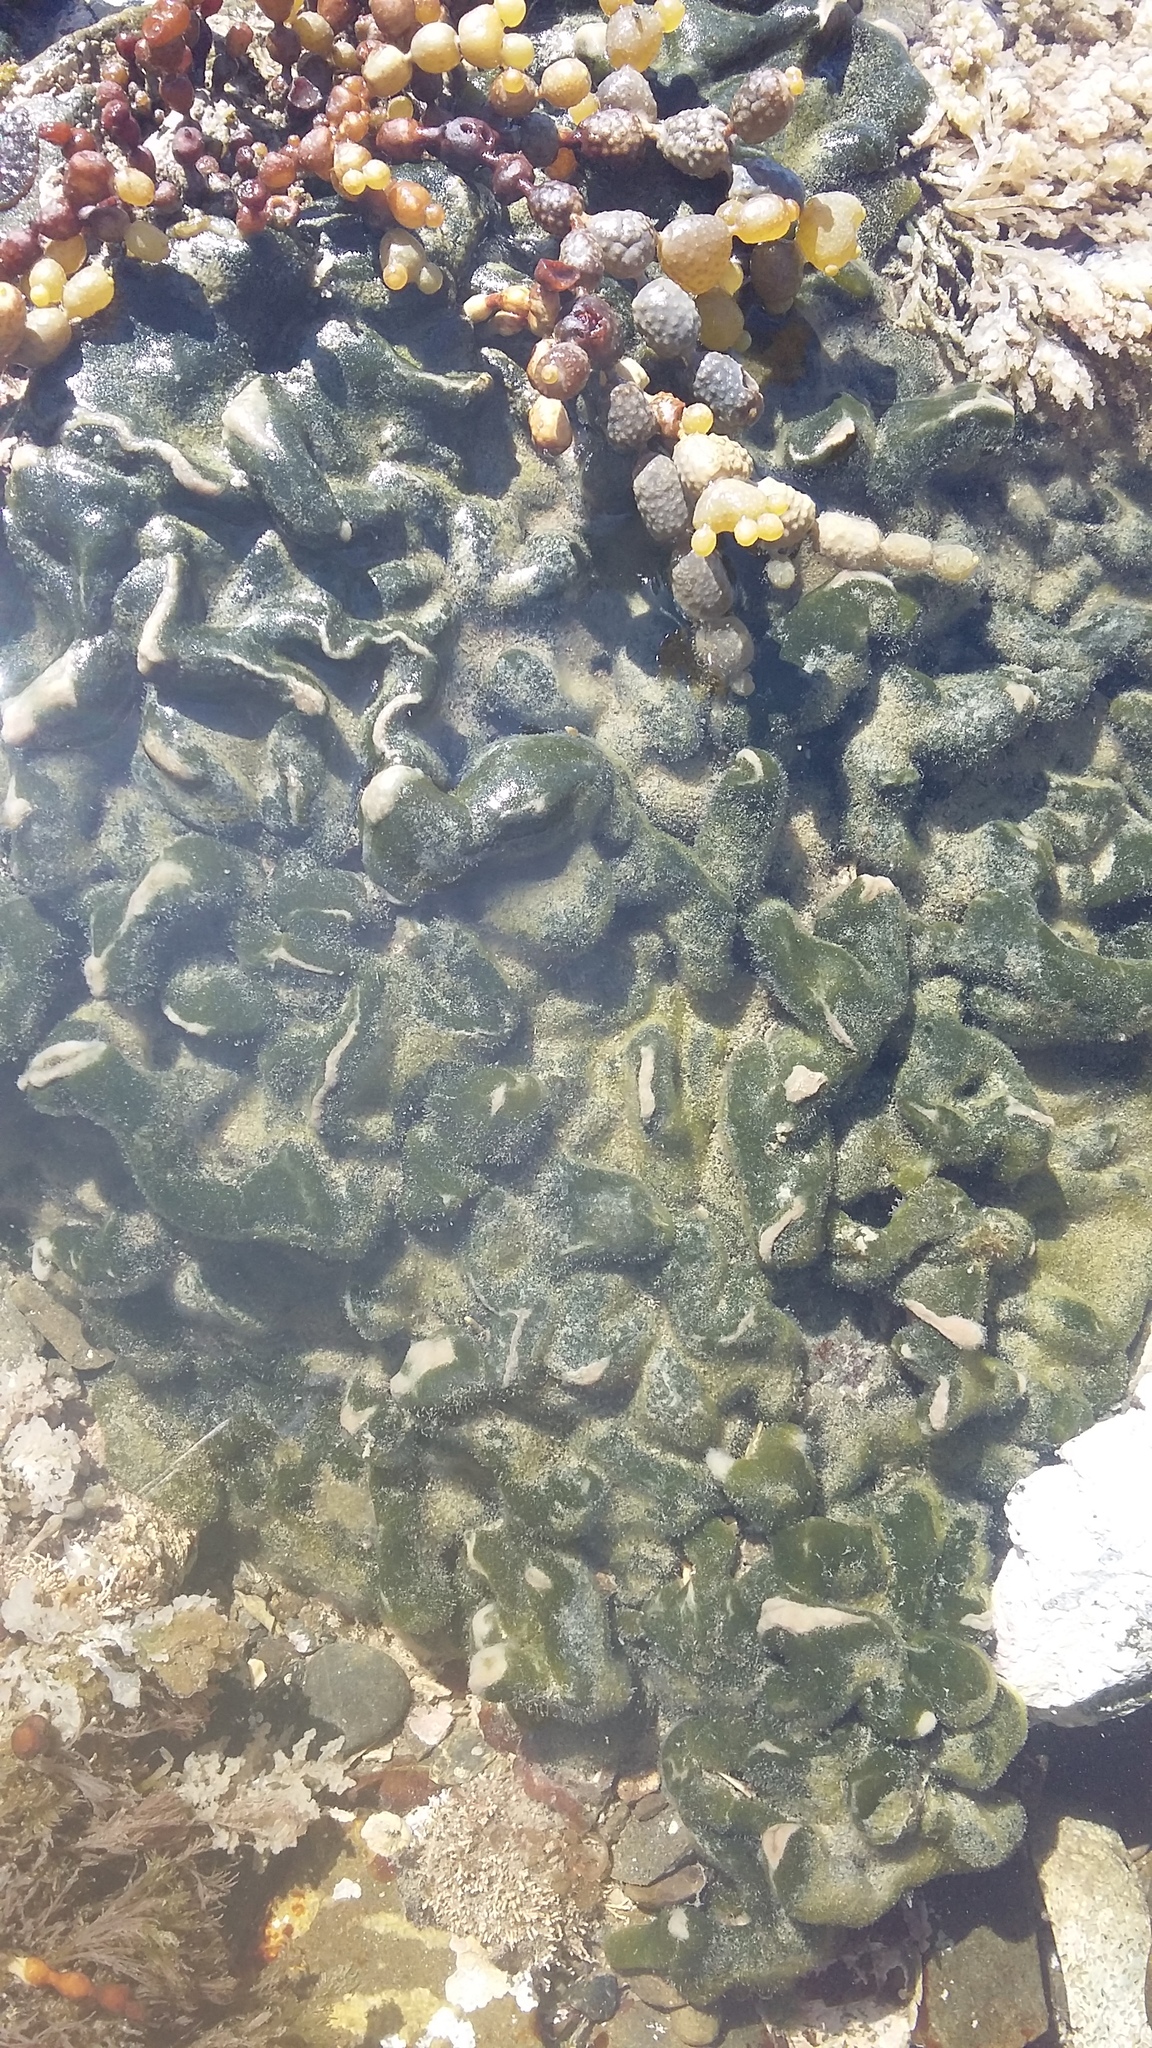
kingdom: Plantae
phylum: Chlorophyta
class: Ulvophyceae
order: Bryopsidales
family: Codiaceae
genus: Codium
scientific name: Codium convolutum
